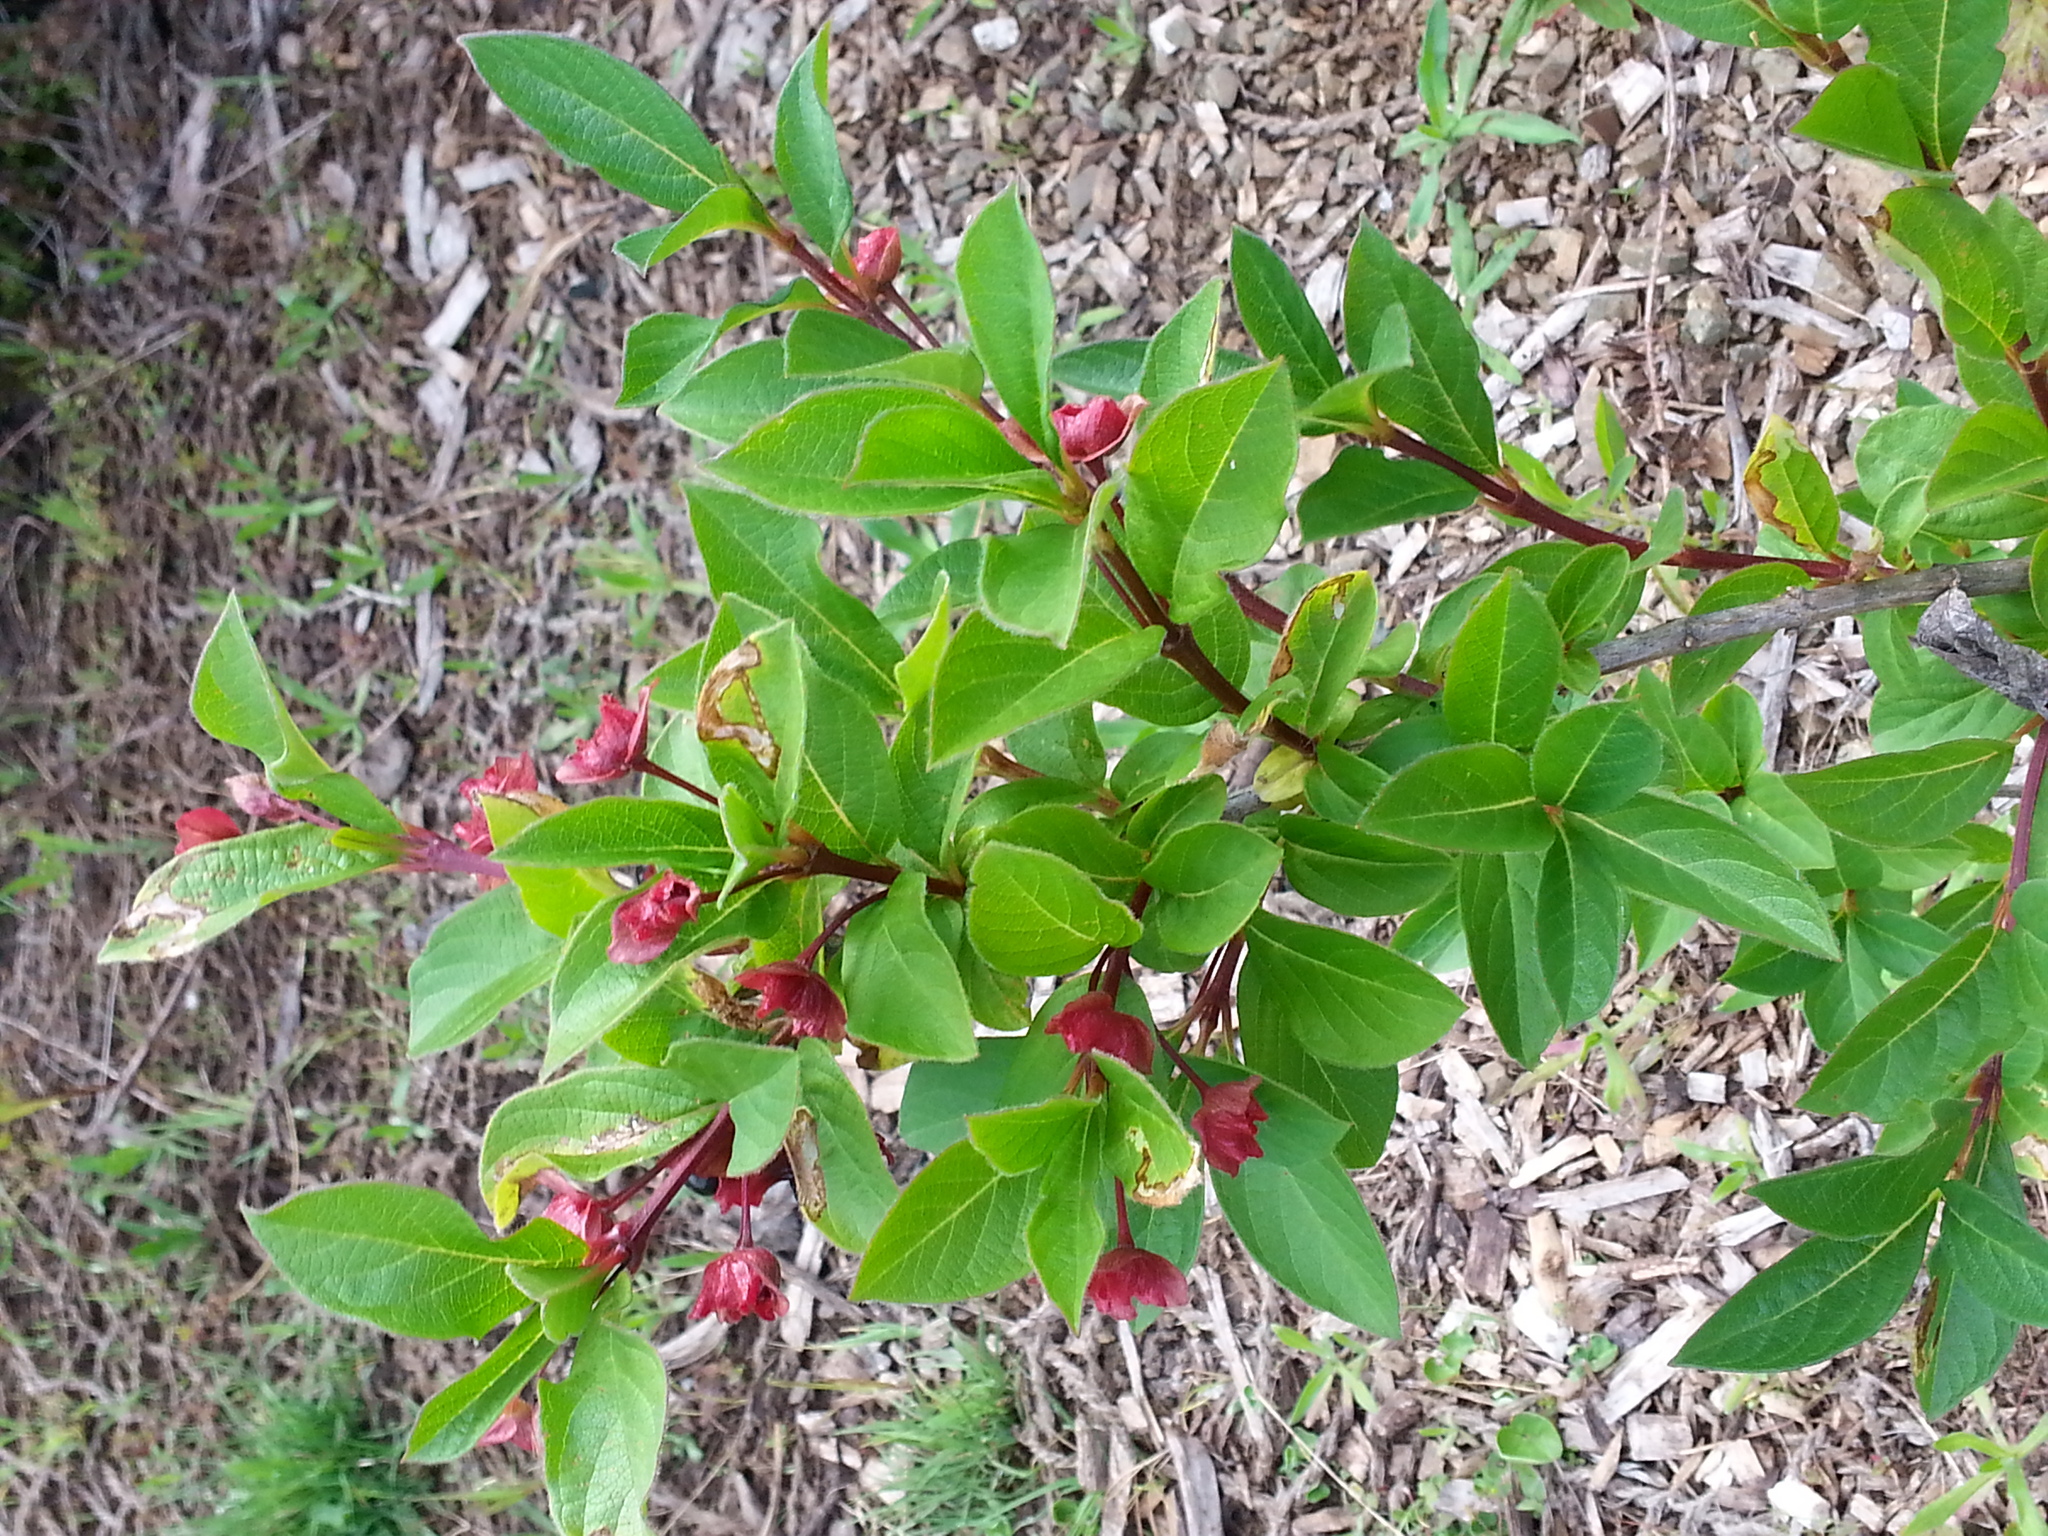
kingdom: Plantae
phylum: Tracheophyta
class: Magnoliopsida
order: Dipsacales
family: Caprifoliaceae
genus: Lonicera
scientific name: Lonicera involucrata
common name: Californian honeysuckle
